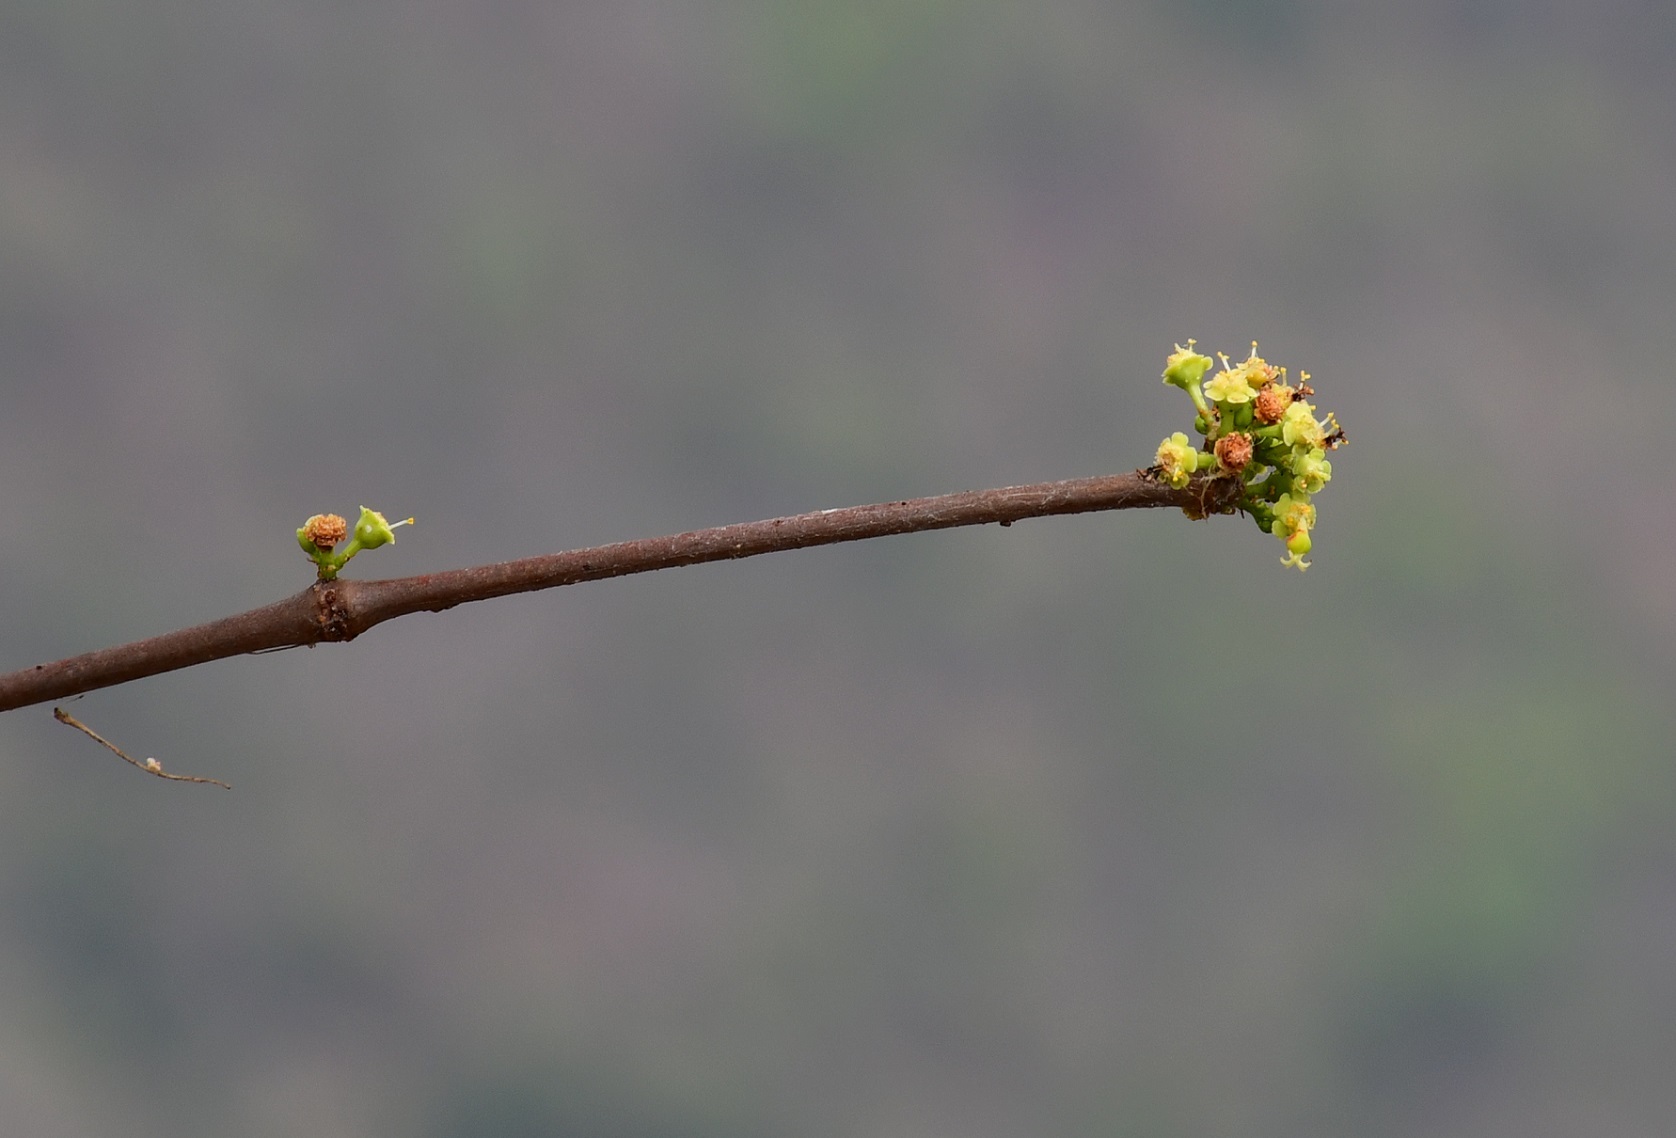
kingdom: Plantae
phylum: Tracheophyta
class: Magnoliopsida
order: Malpighiales
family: Euphorbiaceae
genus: Euphorbia
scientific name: Euphorbia schlechtendalii
